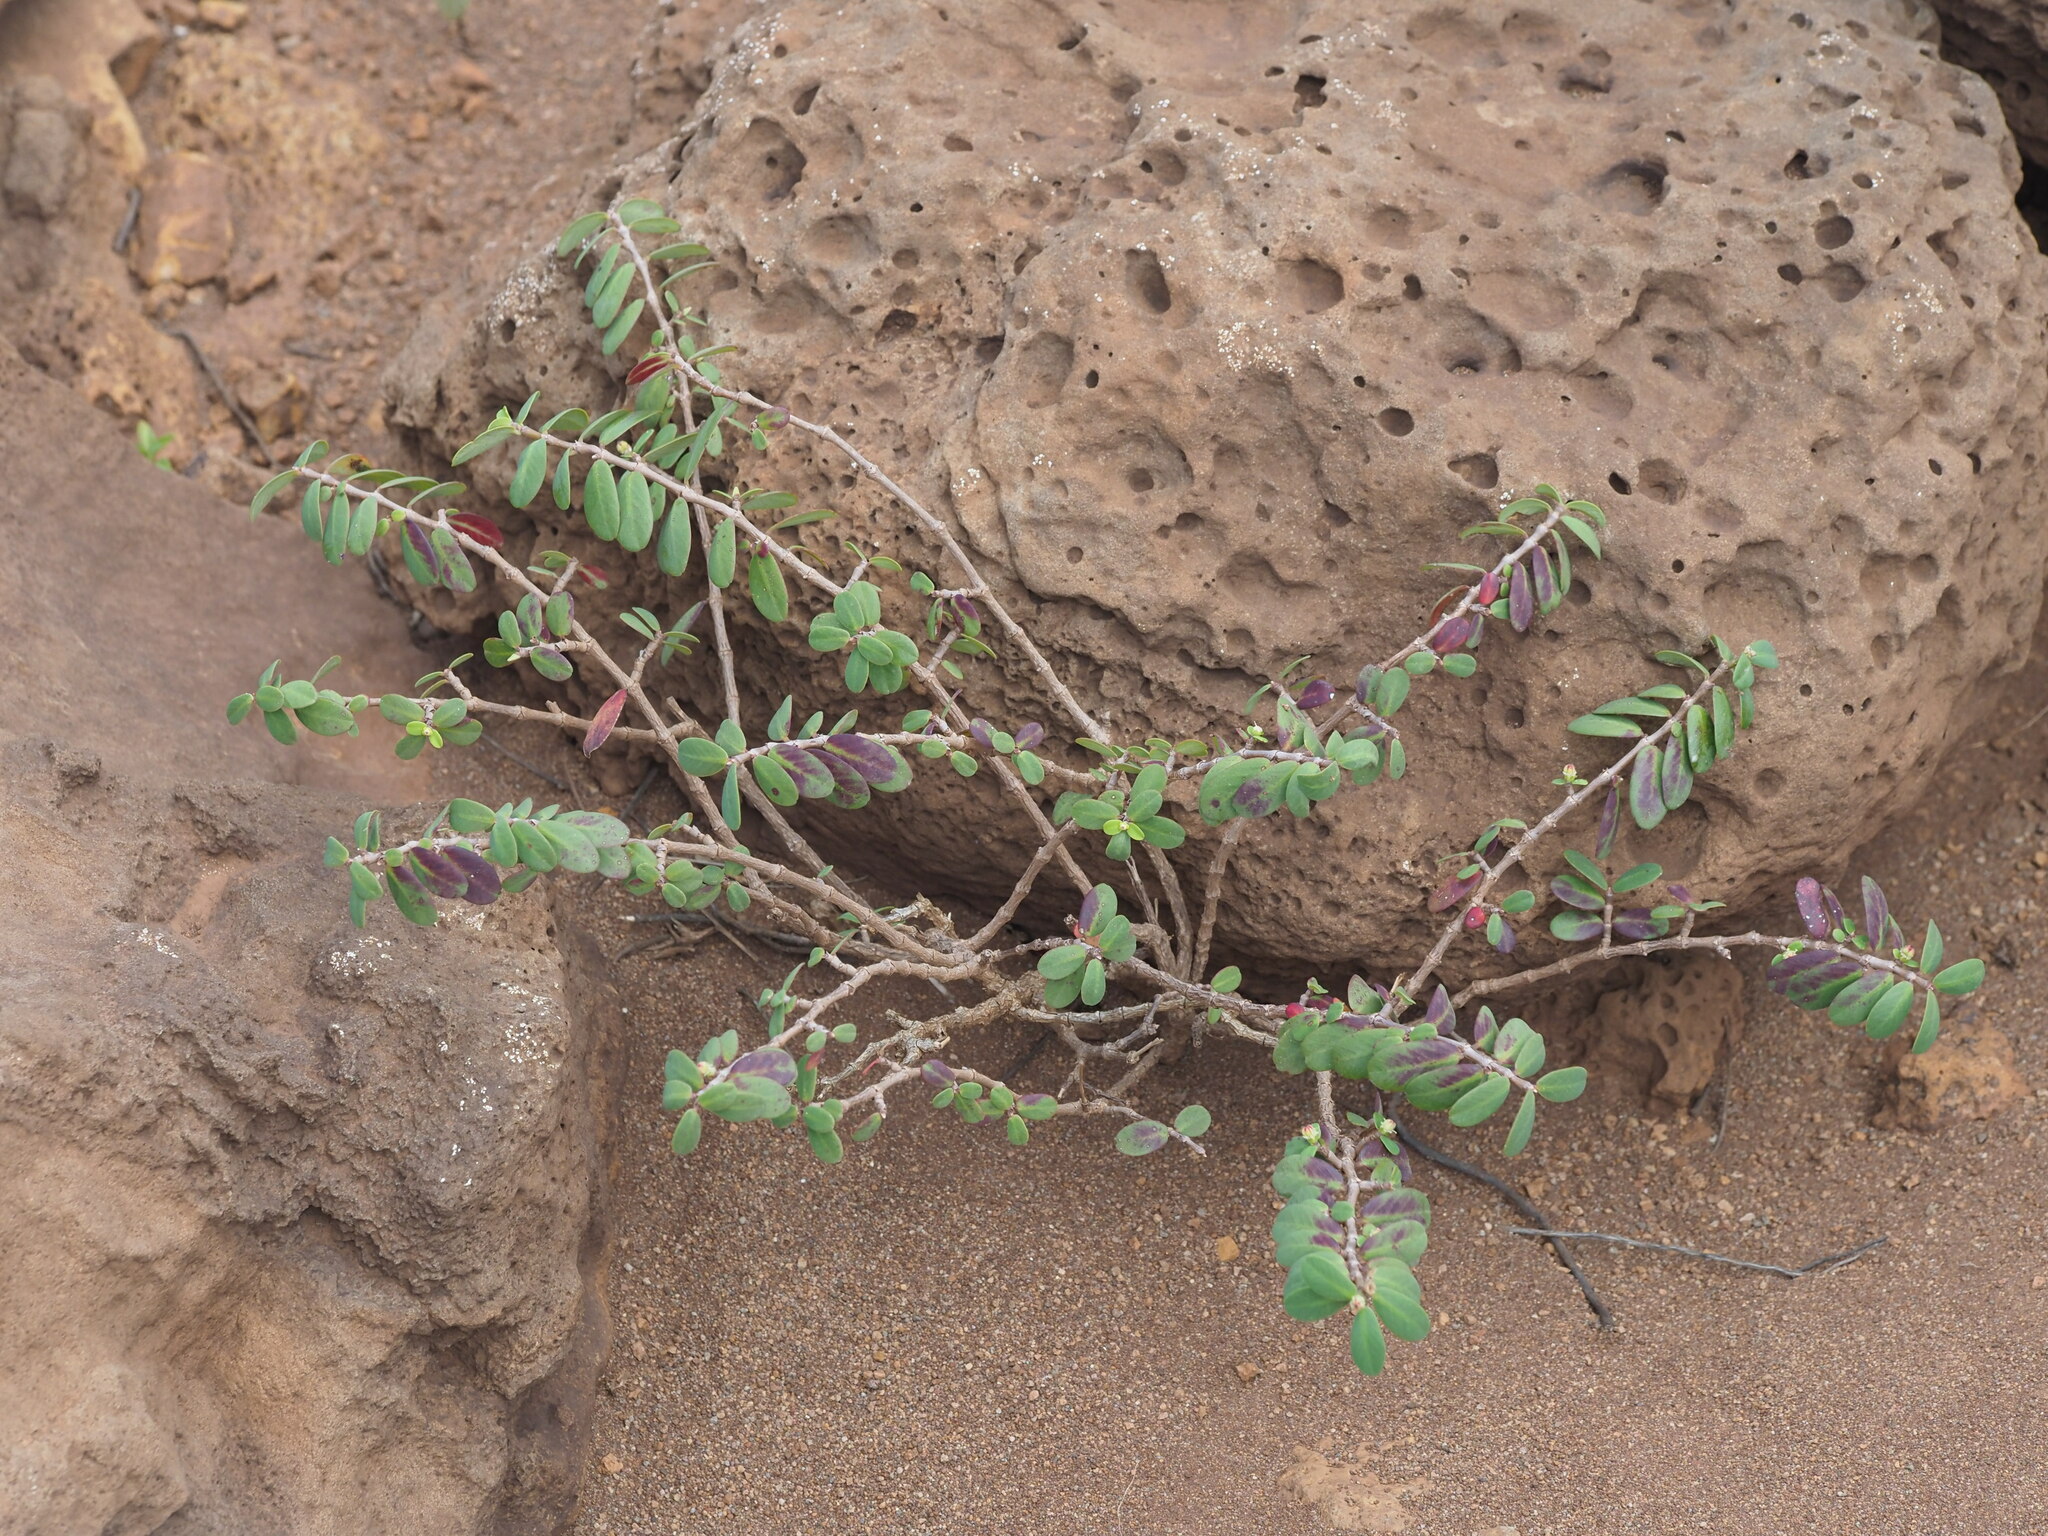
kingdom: Plantae
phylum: Tracheophyta
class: Magnoliopsida
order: Malpighiales
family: Euphorbiaceae
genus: Euphorbia
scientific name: Euphorbia celastroides
